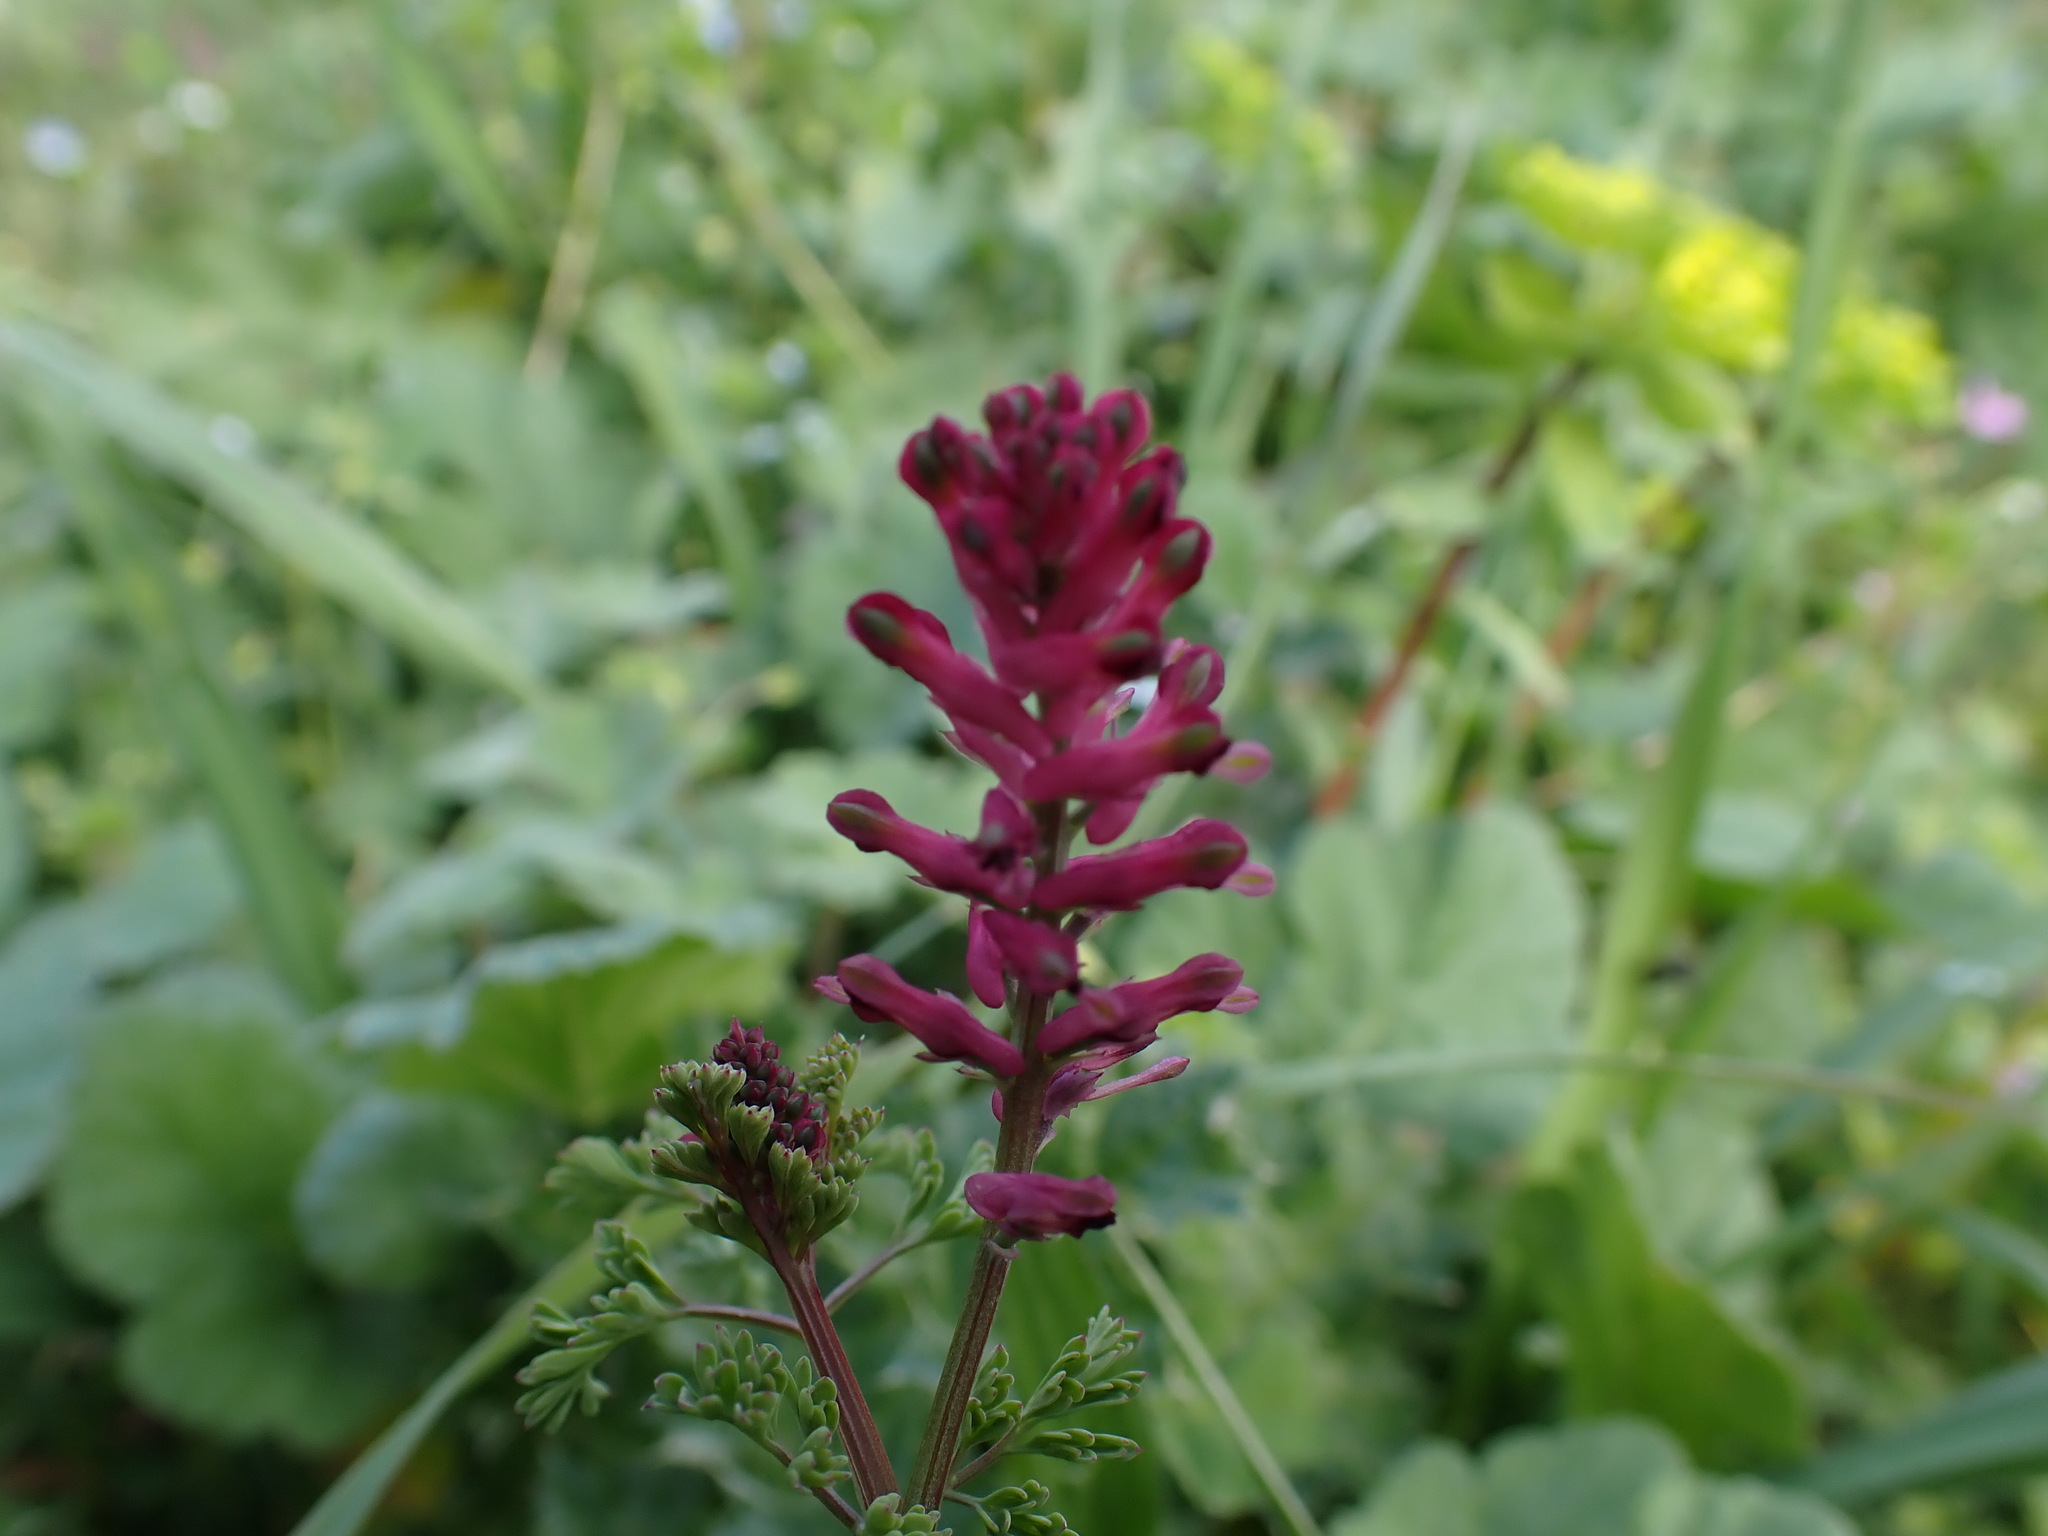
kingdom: Plantae
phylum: Tracheophyta
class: Magnoliopsida
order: Ranunculales
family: Papaveraceae
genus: Fumaria
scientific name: Fumaria officinalis
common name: Common fumitory
